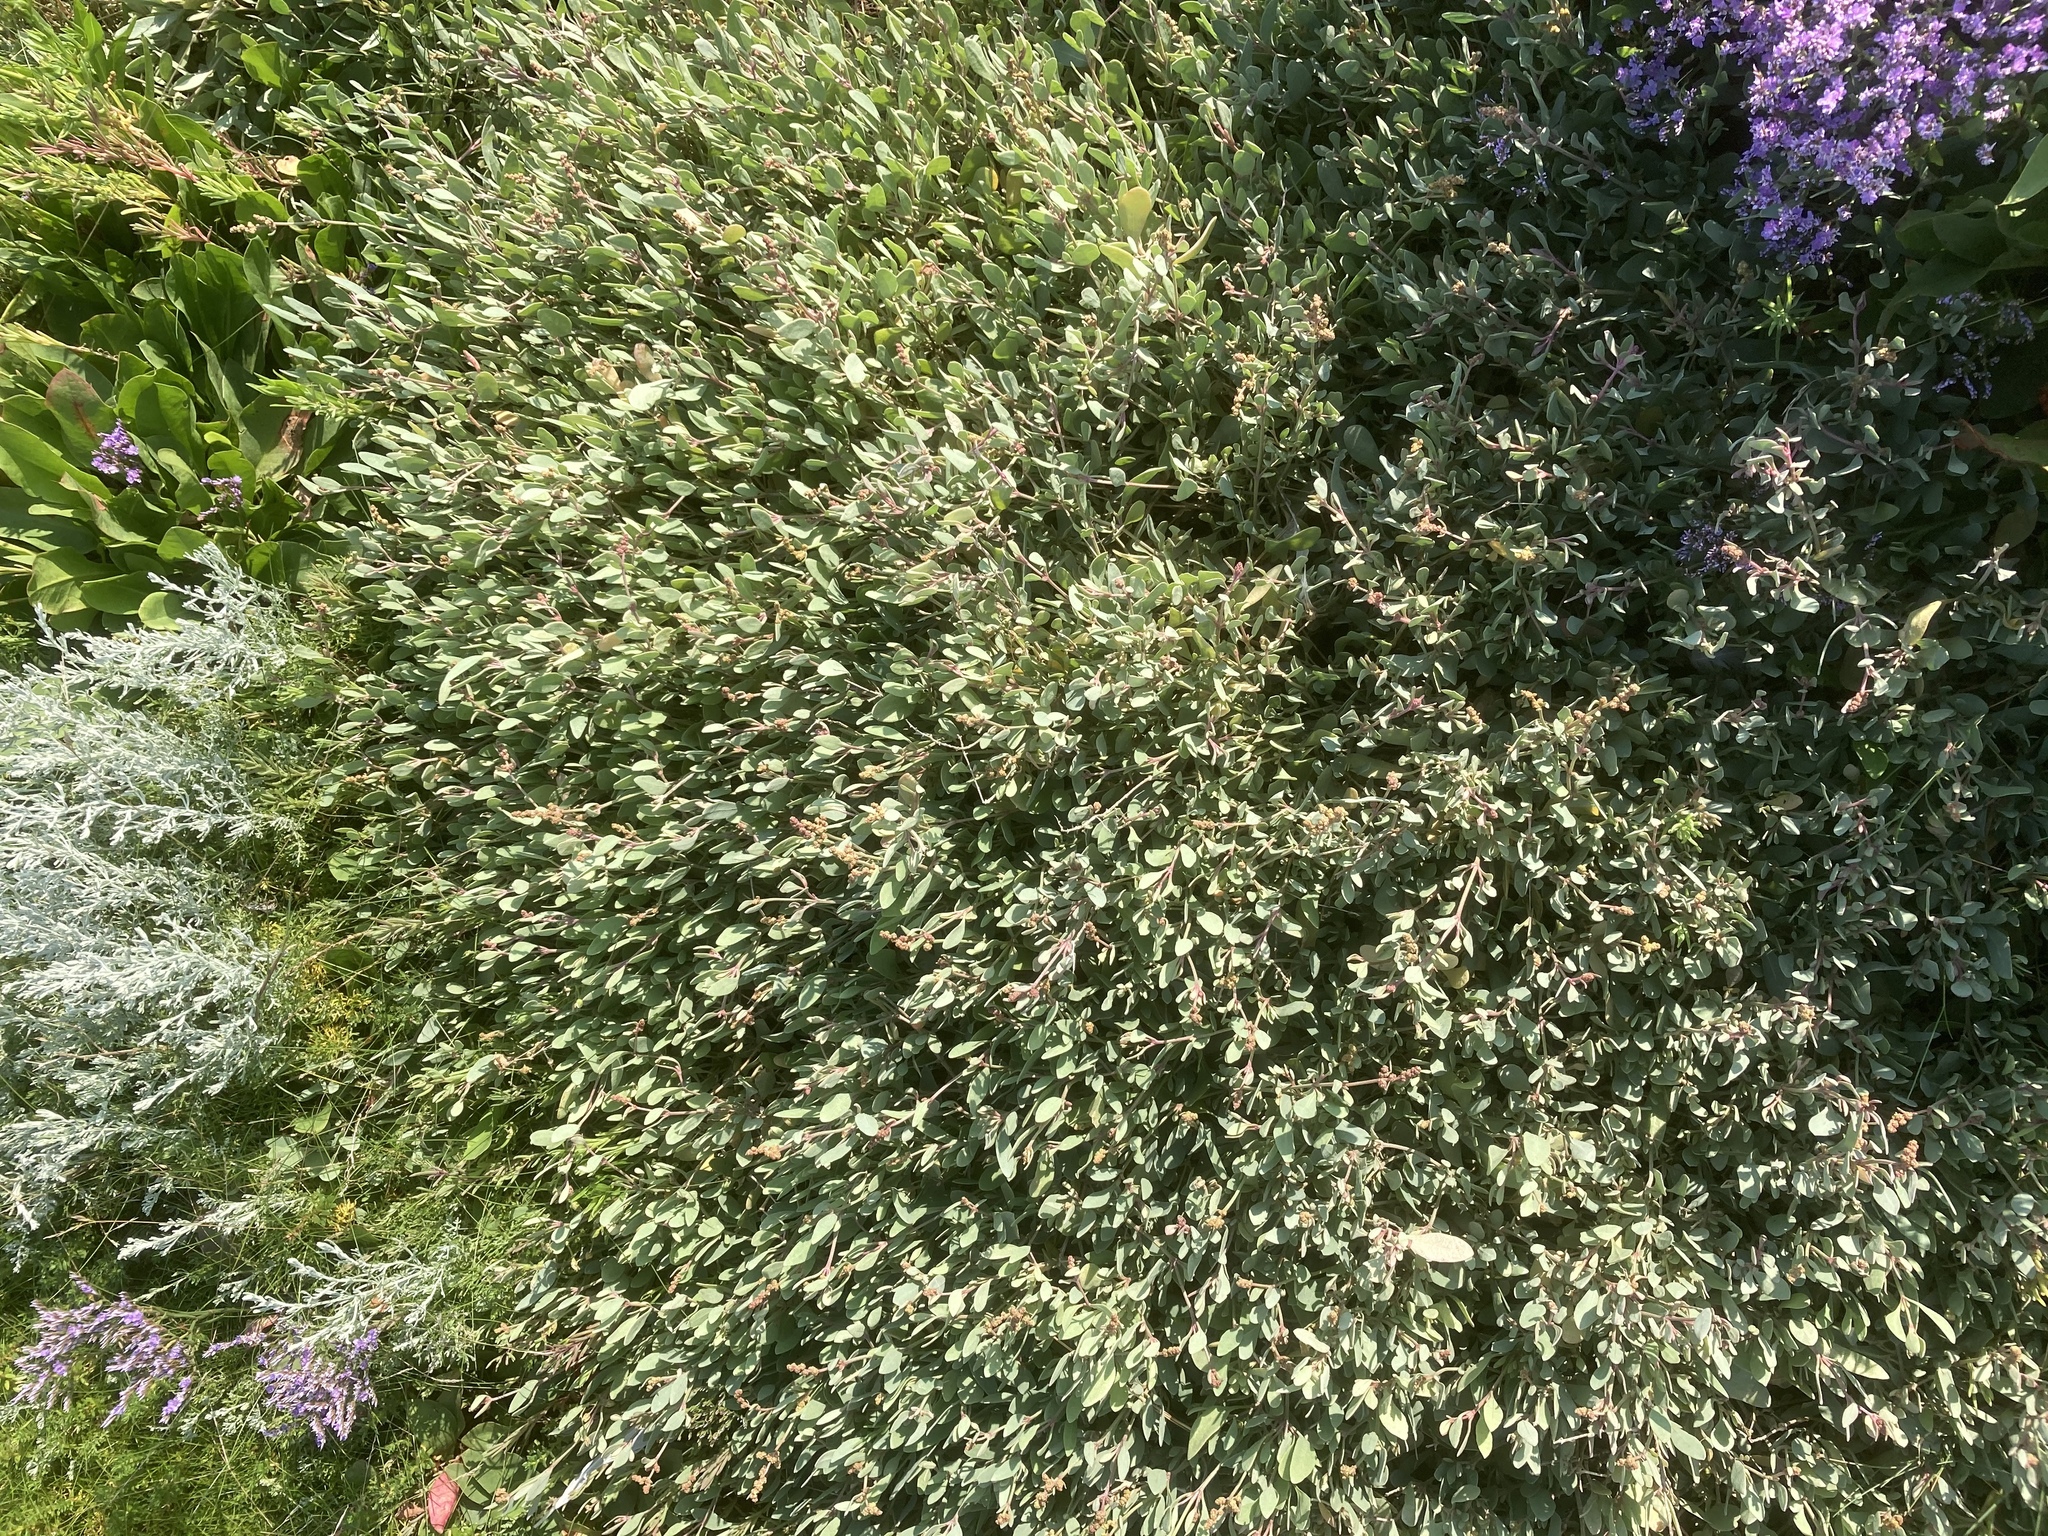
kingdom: Plantae
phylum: Tracheophyta
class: Magnoliopsida
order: Caryophyllales
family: Amaranthaceae
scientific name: Amaranthaceae
